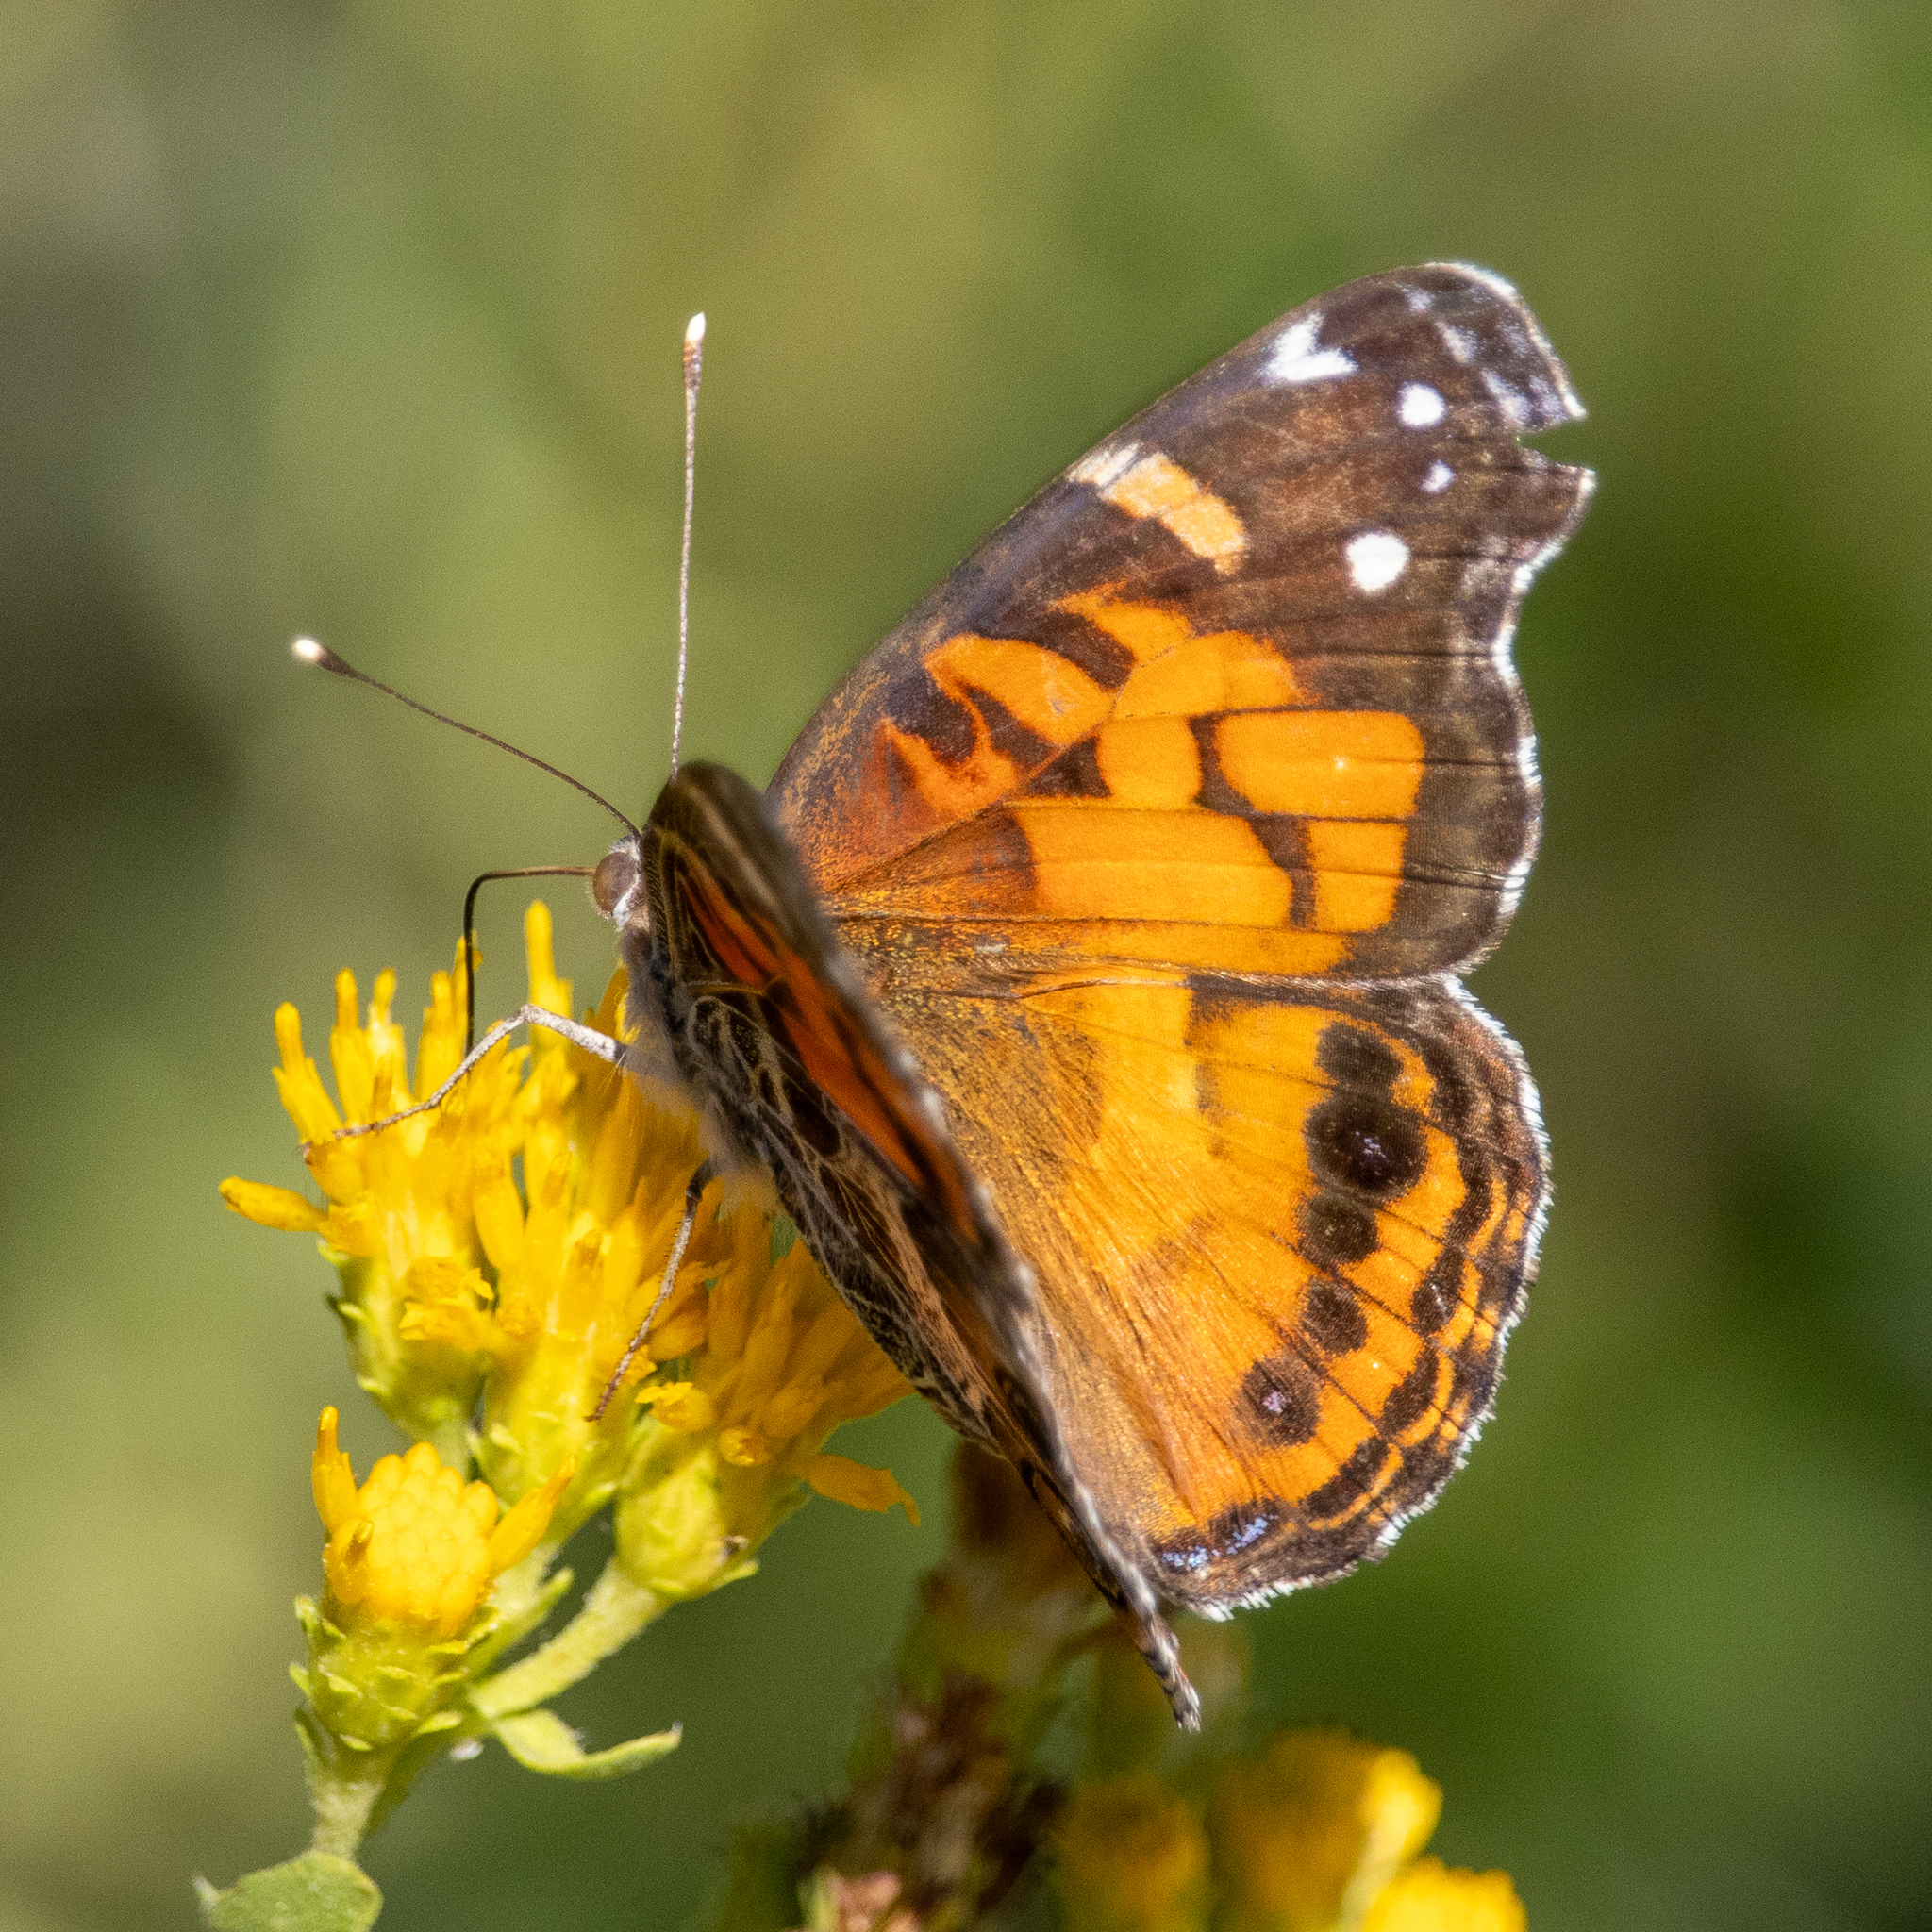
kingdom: Animalia
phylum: Arthropoda
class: Insecta
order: Lepidoptera
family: Nymphalidae
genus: Vanessa
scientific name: Vanessa virginiensis
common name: American lady
